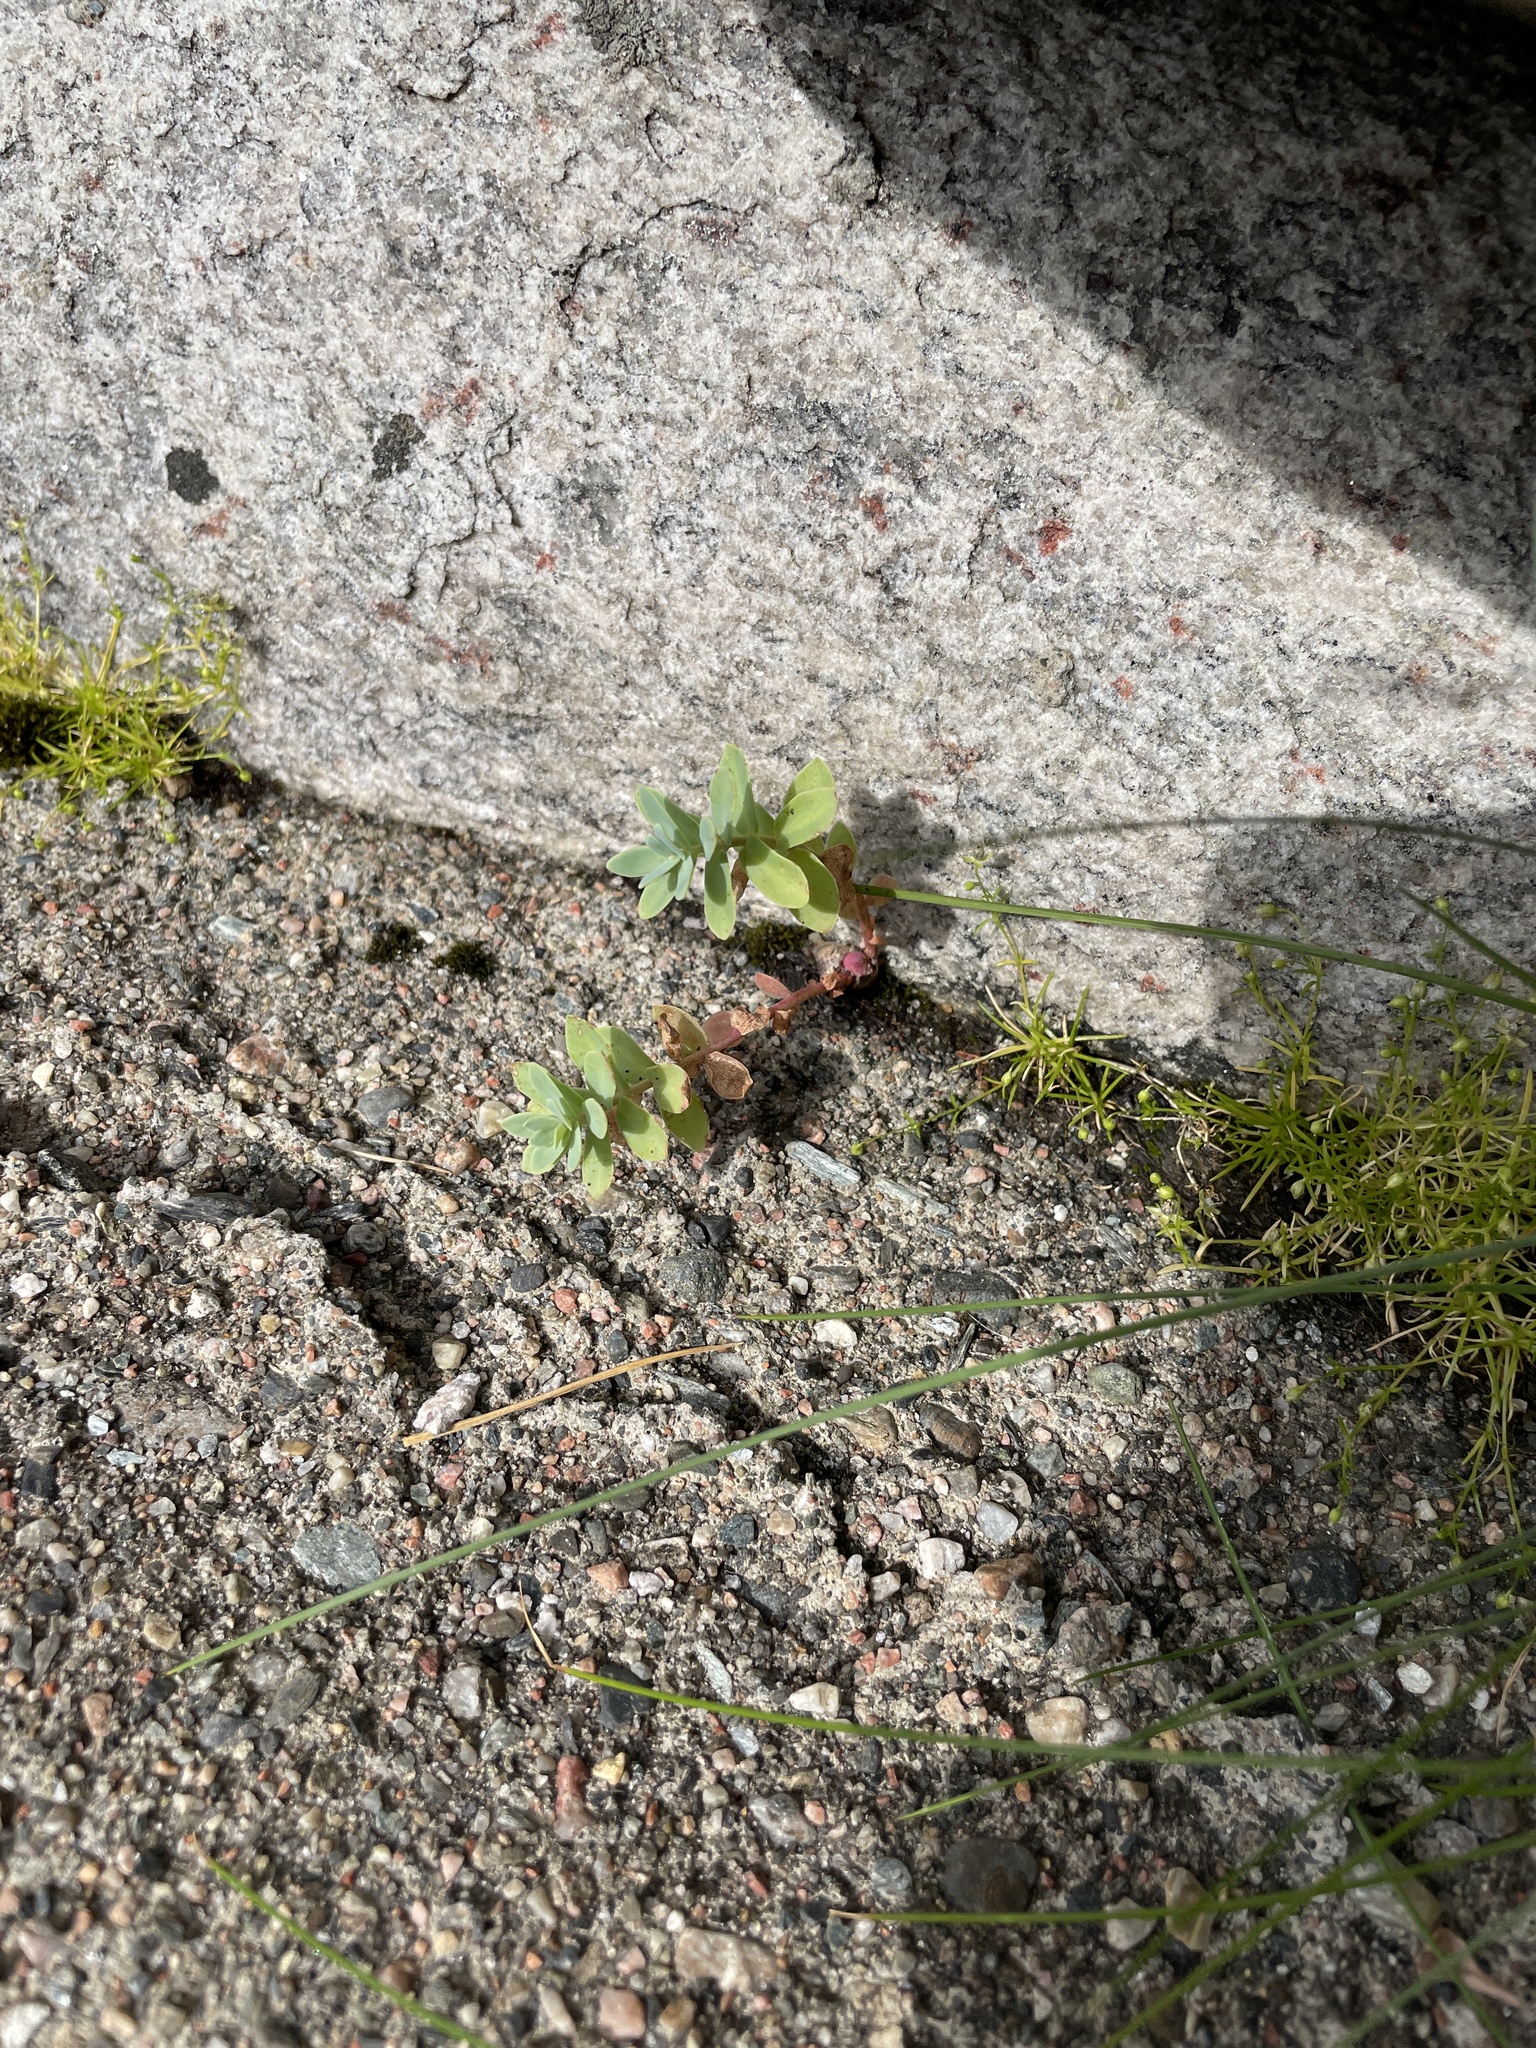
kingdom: Plantae
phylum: Tracheophyta
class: Magnoliopsida
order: Saxifragales
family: Crassulaceae
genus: Rhodiola
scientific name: Rhodiola rosea
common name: Roseroot
